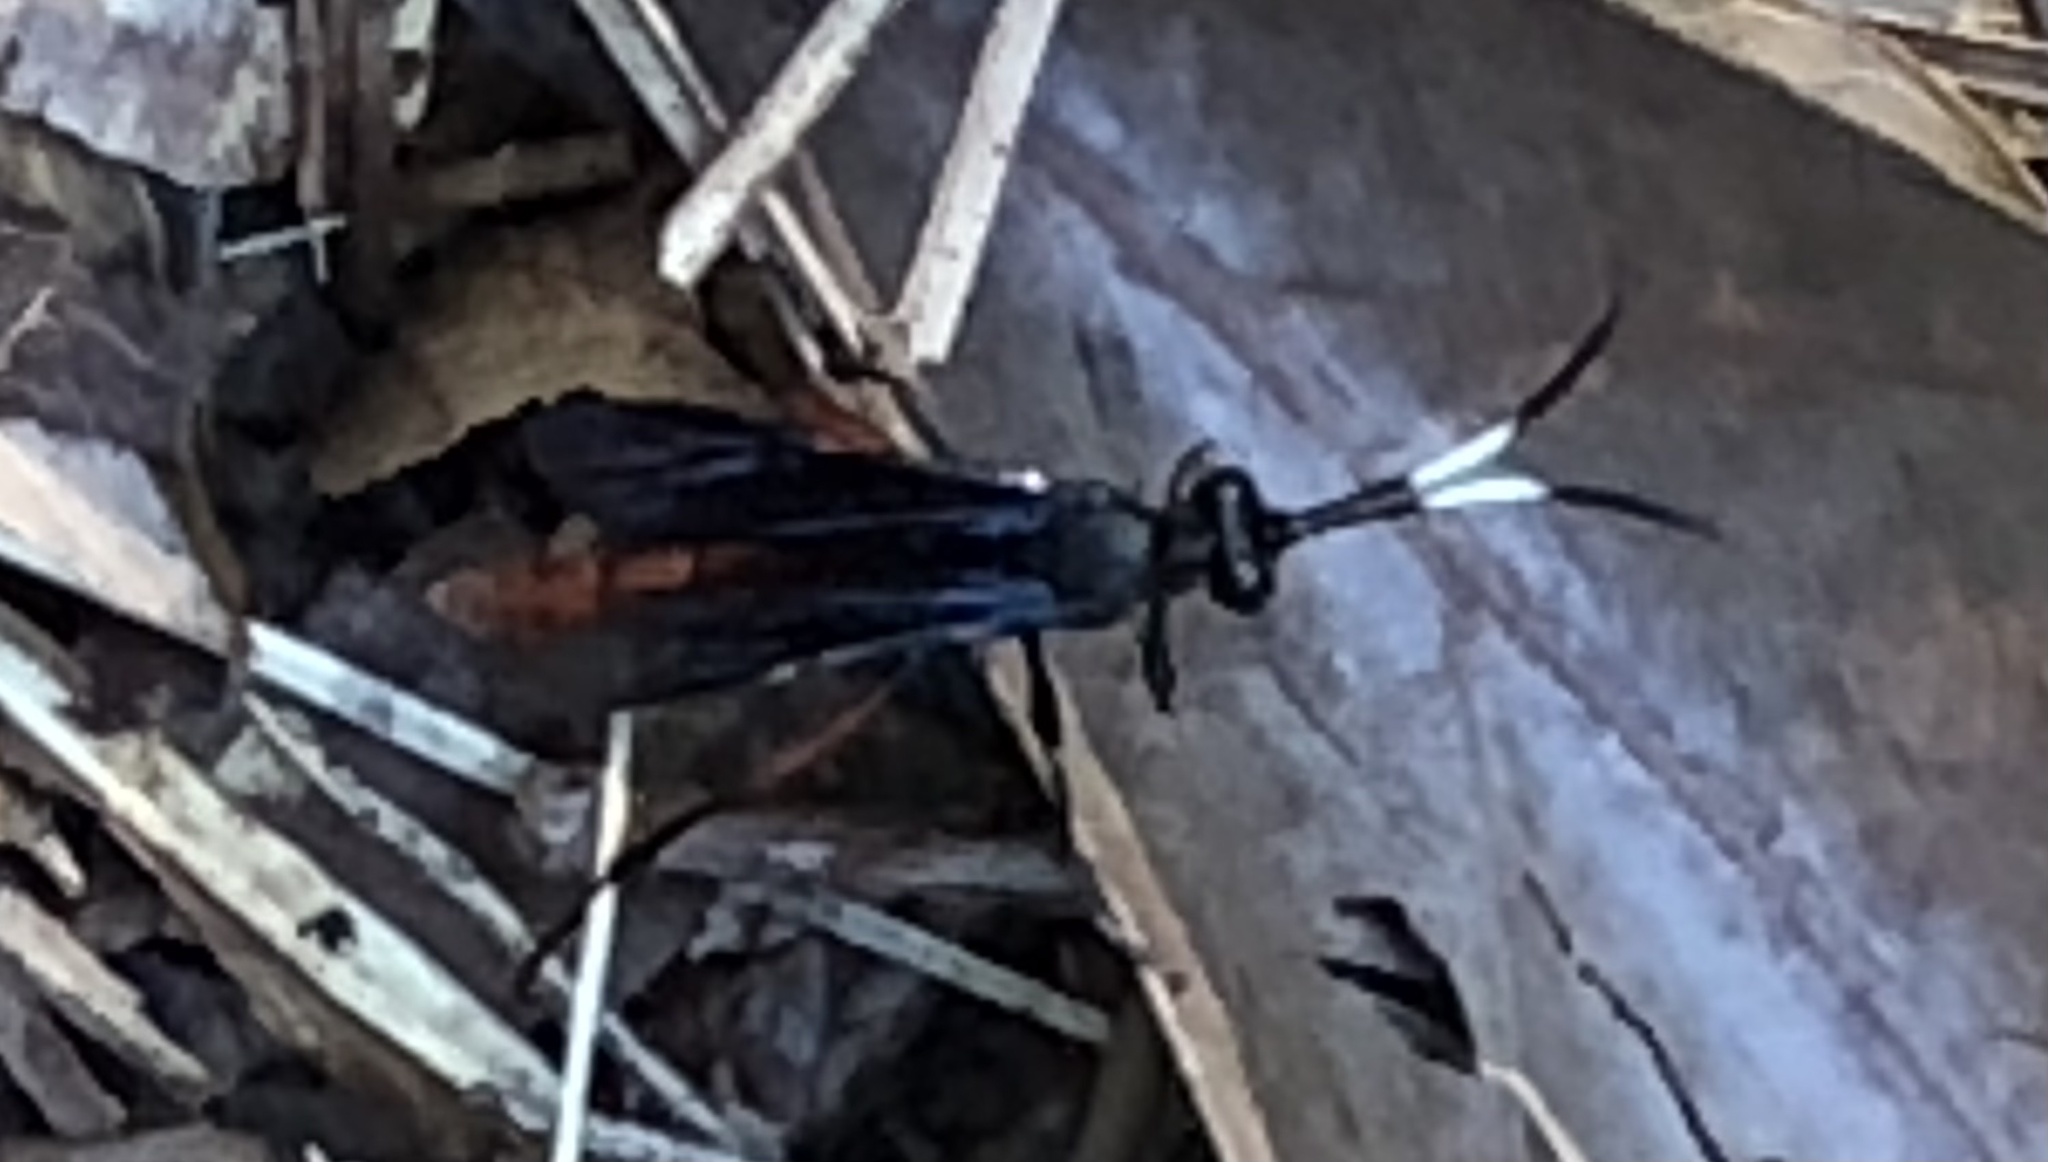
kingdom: Animalia
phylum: Arthropoda
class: Insecta
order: Hymenoptera
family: Ichneumonidae
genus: Limonethe
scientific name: Limonethe maurator
